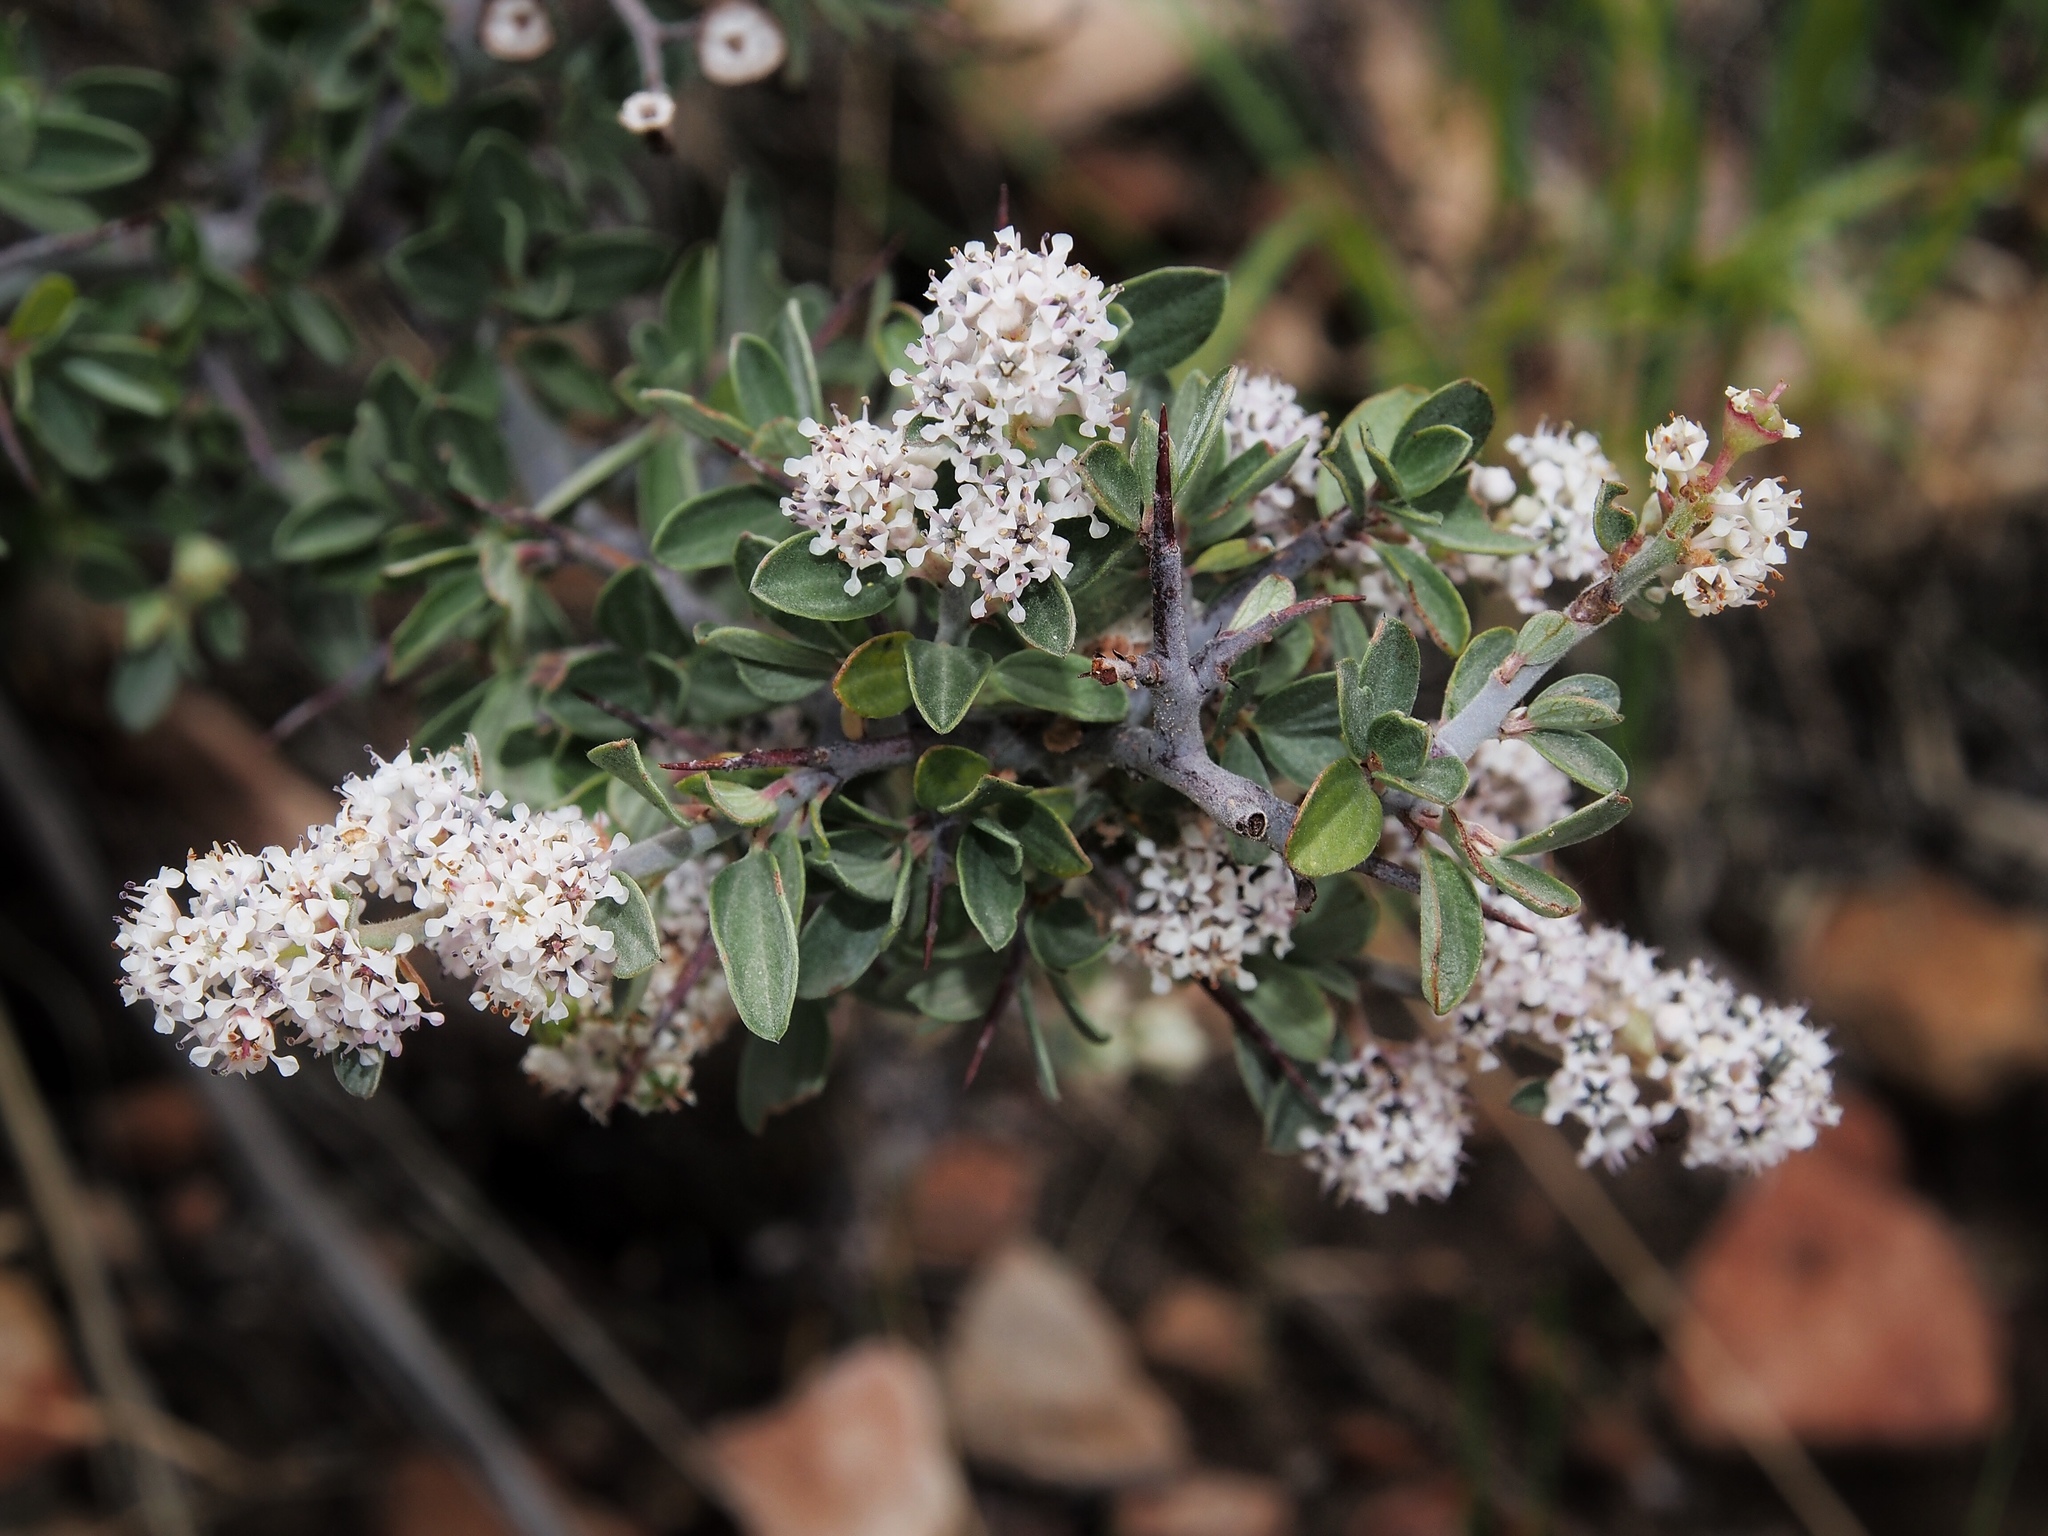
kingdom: Plantae
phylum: Tracheophyta
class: Magnoliopsida
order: Rosales
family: Rhamnaceae
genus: Ceanothus
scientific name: Ceanothus fendleri
